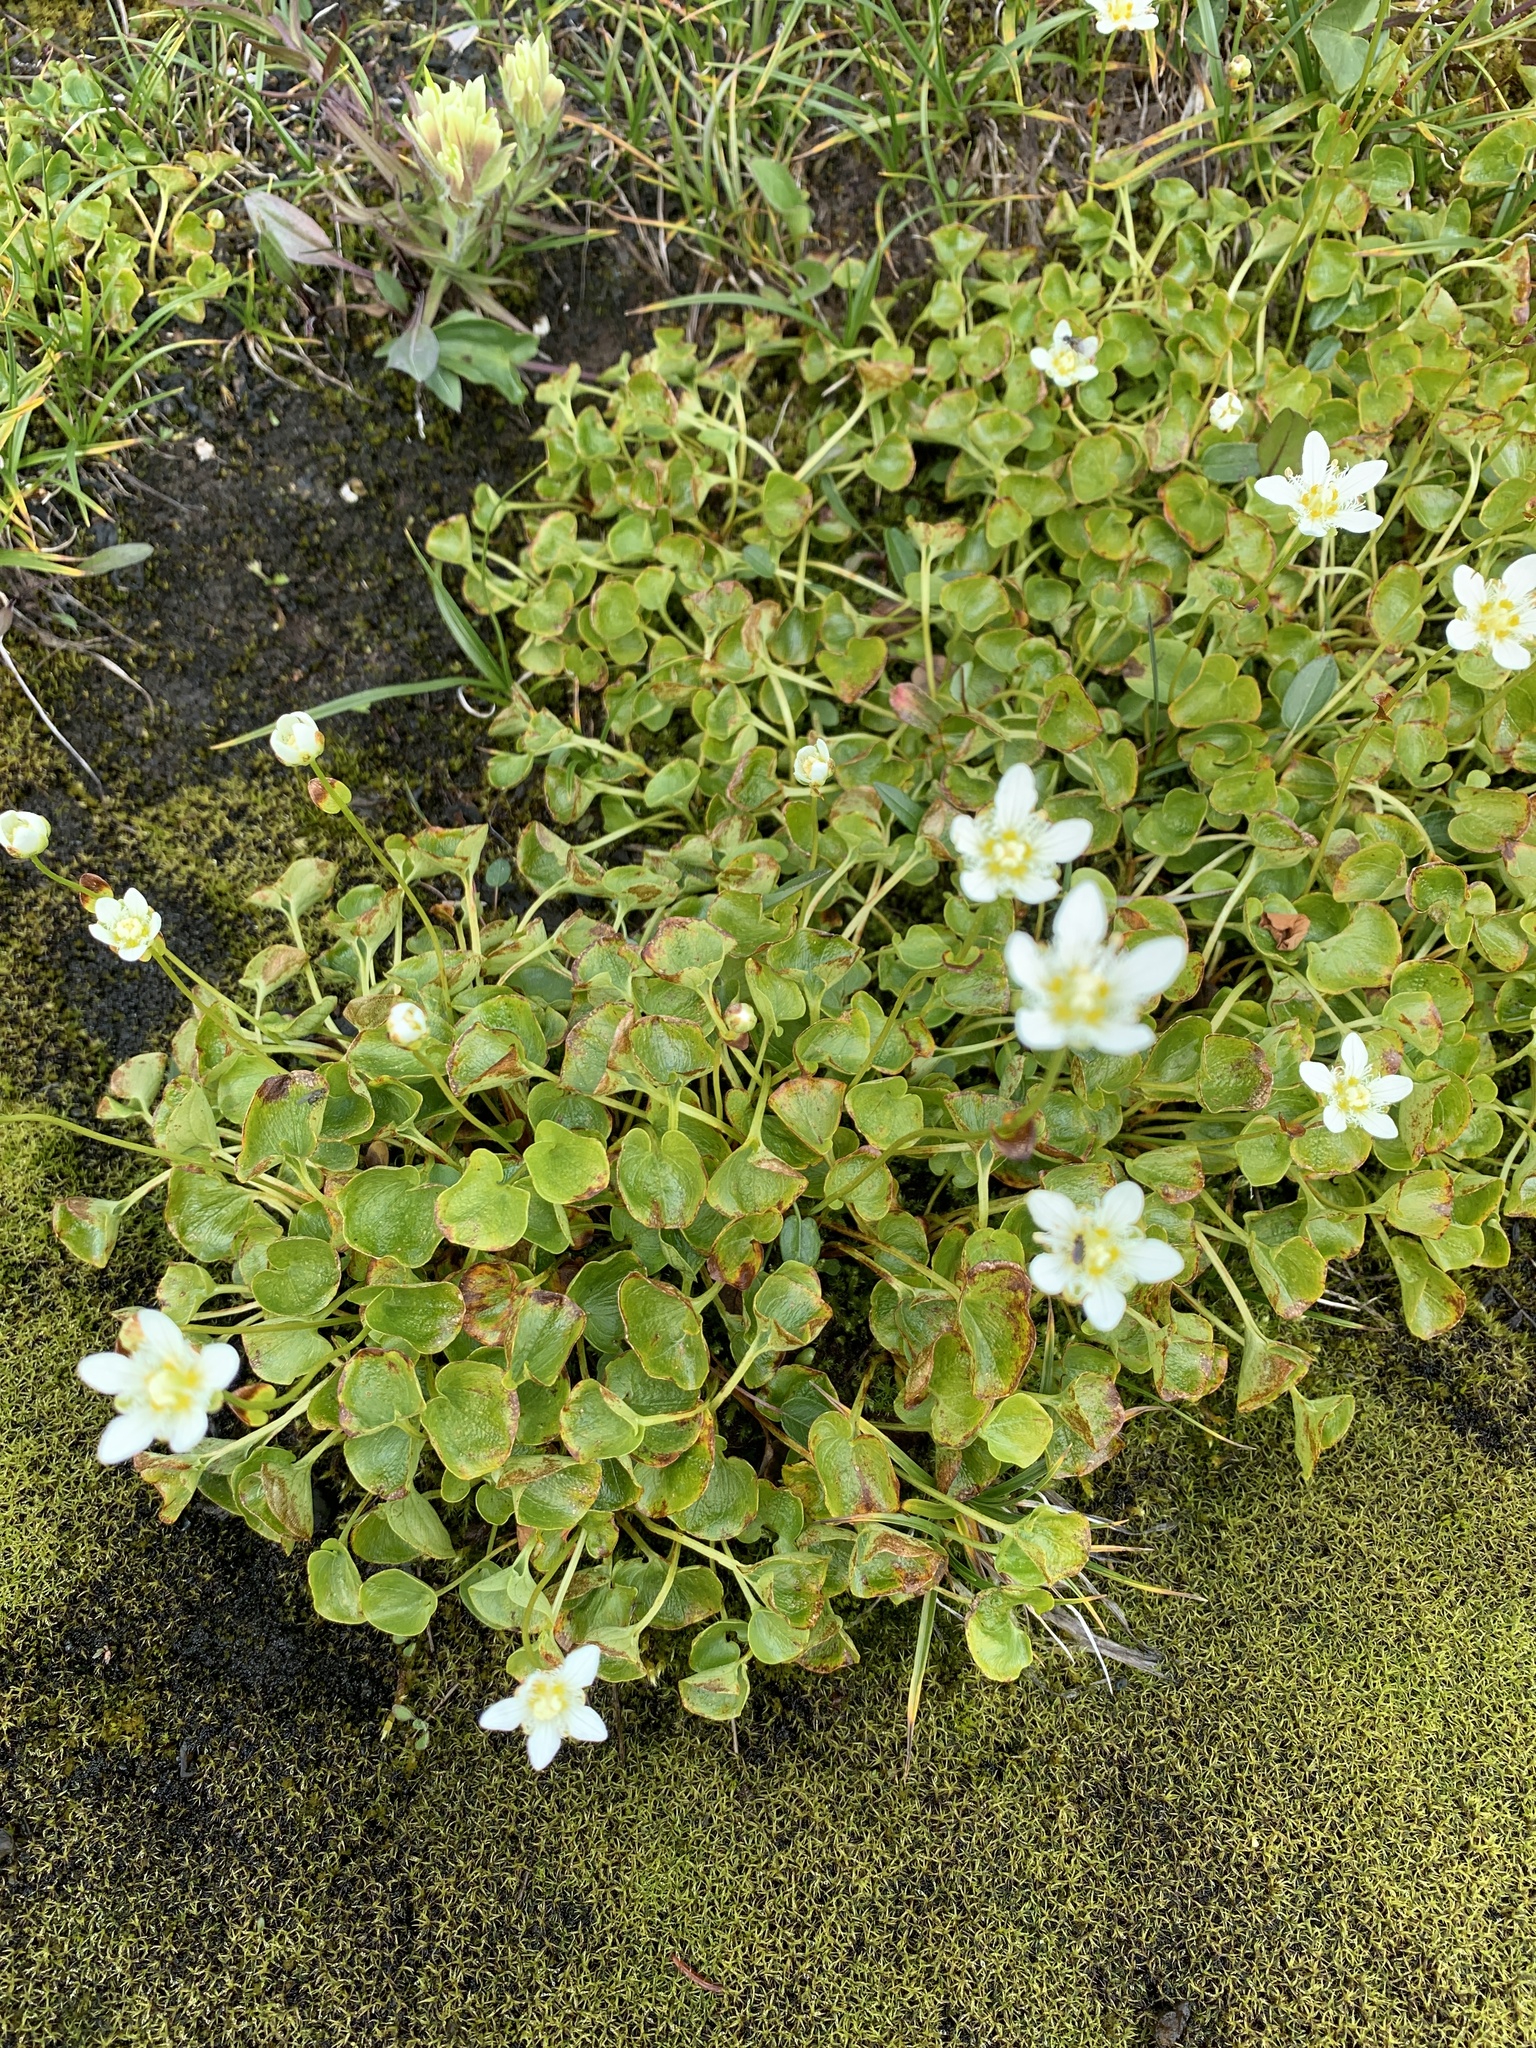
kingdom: Plantae
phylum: Tracheophyta
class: Magnoliopsida
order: Celastrales
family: Parnassiaceae
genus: Parnassia
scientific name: Parnassia fimbriata
